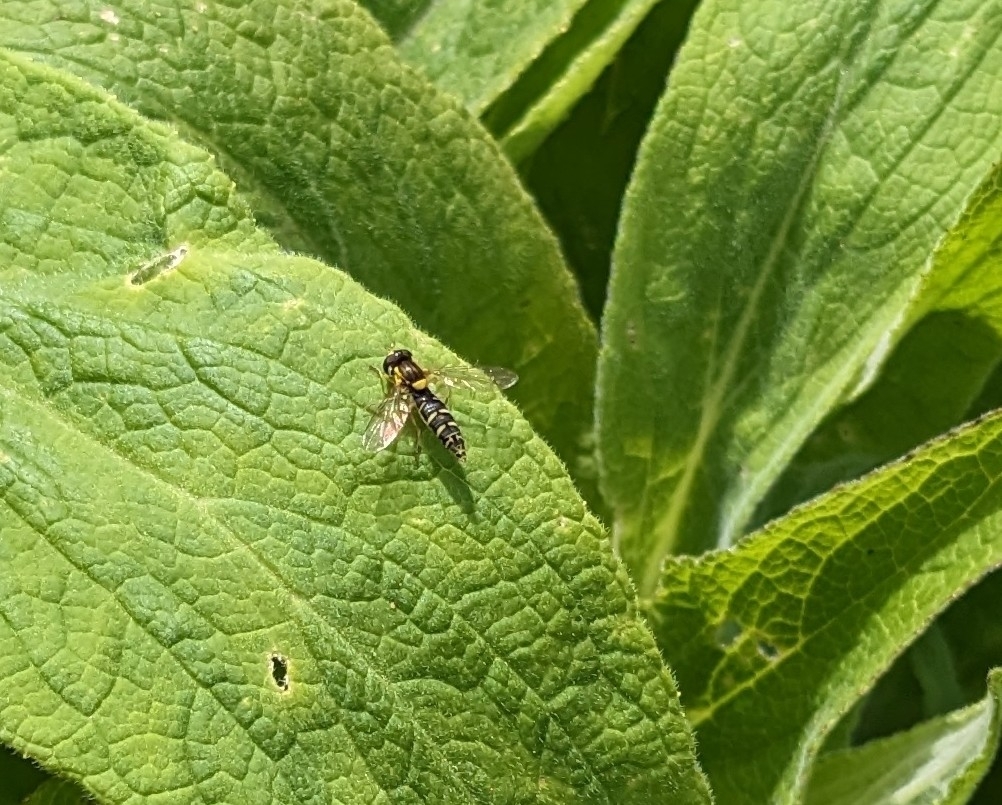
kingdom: Animalia
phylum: Arthropoda
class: Insecta
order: Diptera
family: Syrphidae
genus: Sphaerophoria
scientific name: Sphaerophoria
